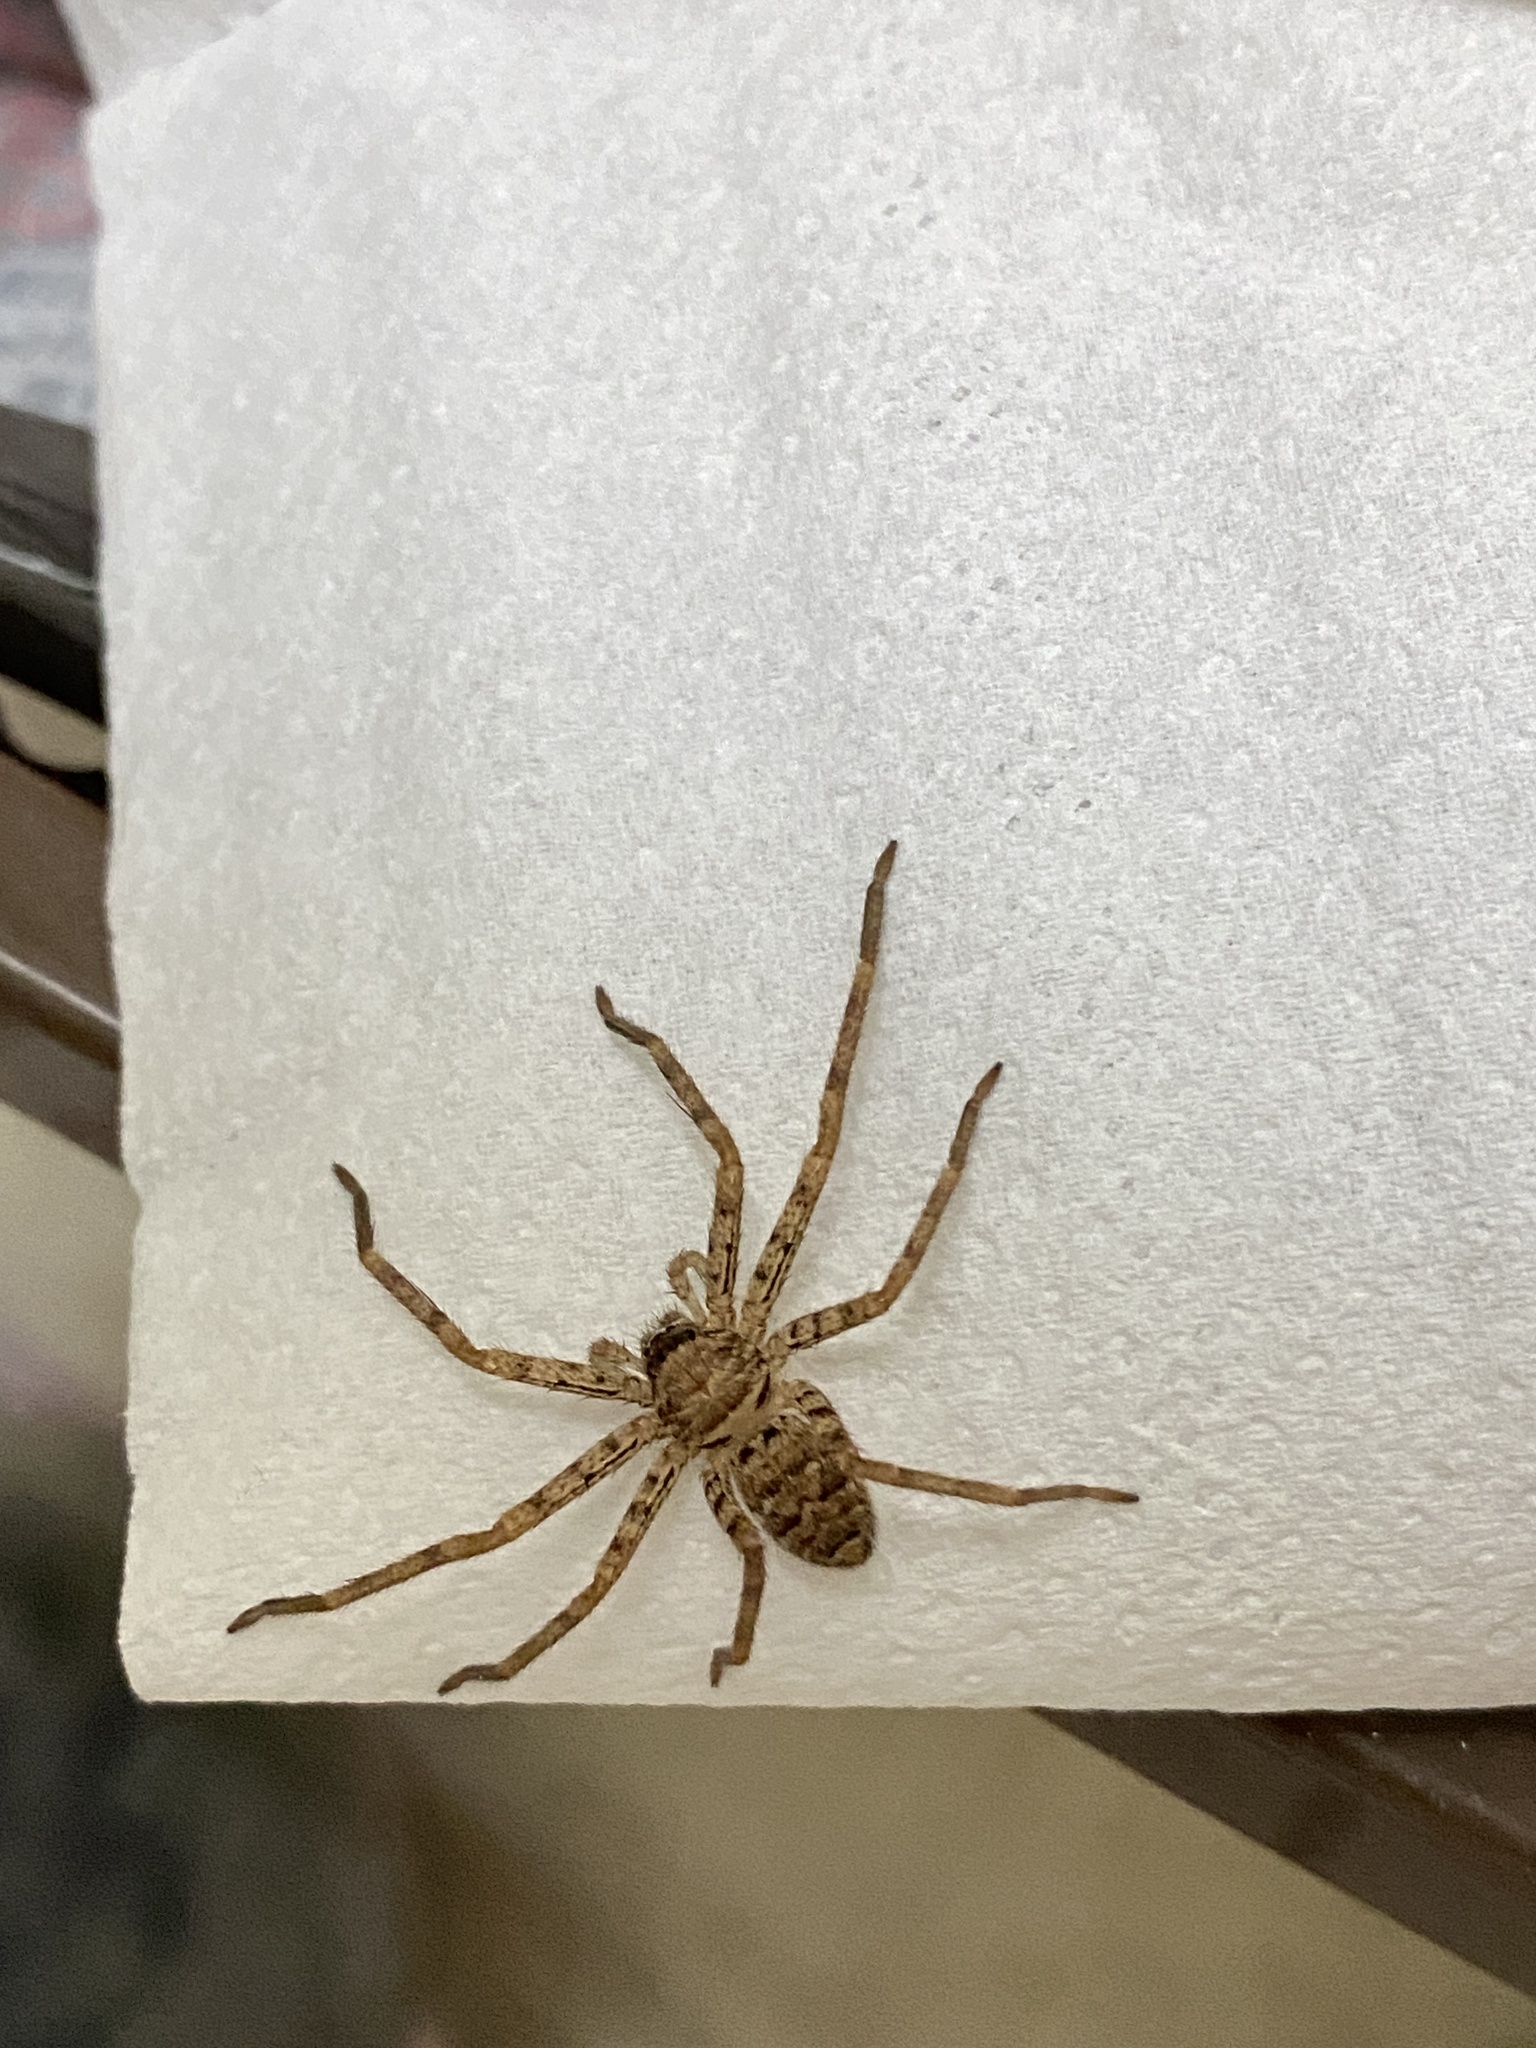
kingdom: Animalia
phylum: Arthropoda
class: Arachnida
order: Araneae
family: Sparassidae
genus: Heteropoda
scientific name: Heteropoda venatoria
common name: Huntsman spider
